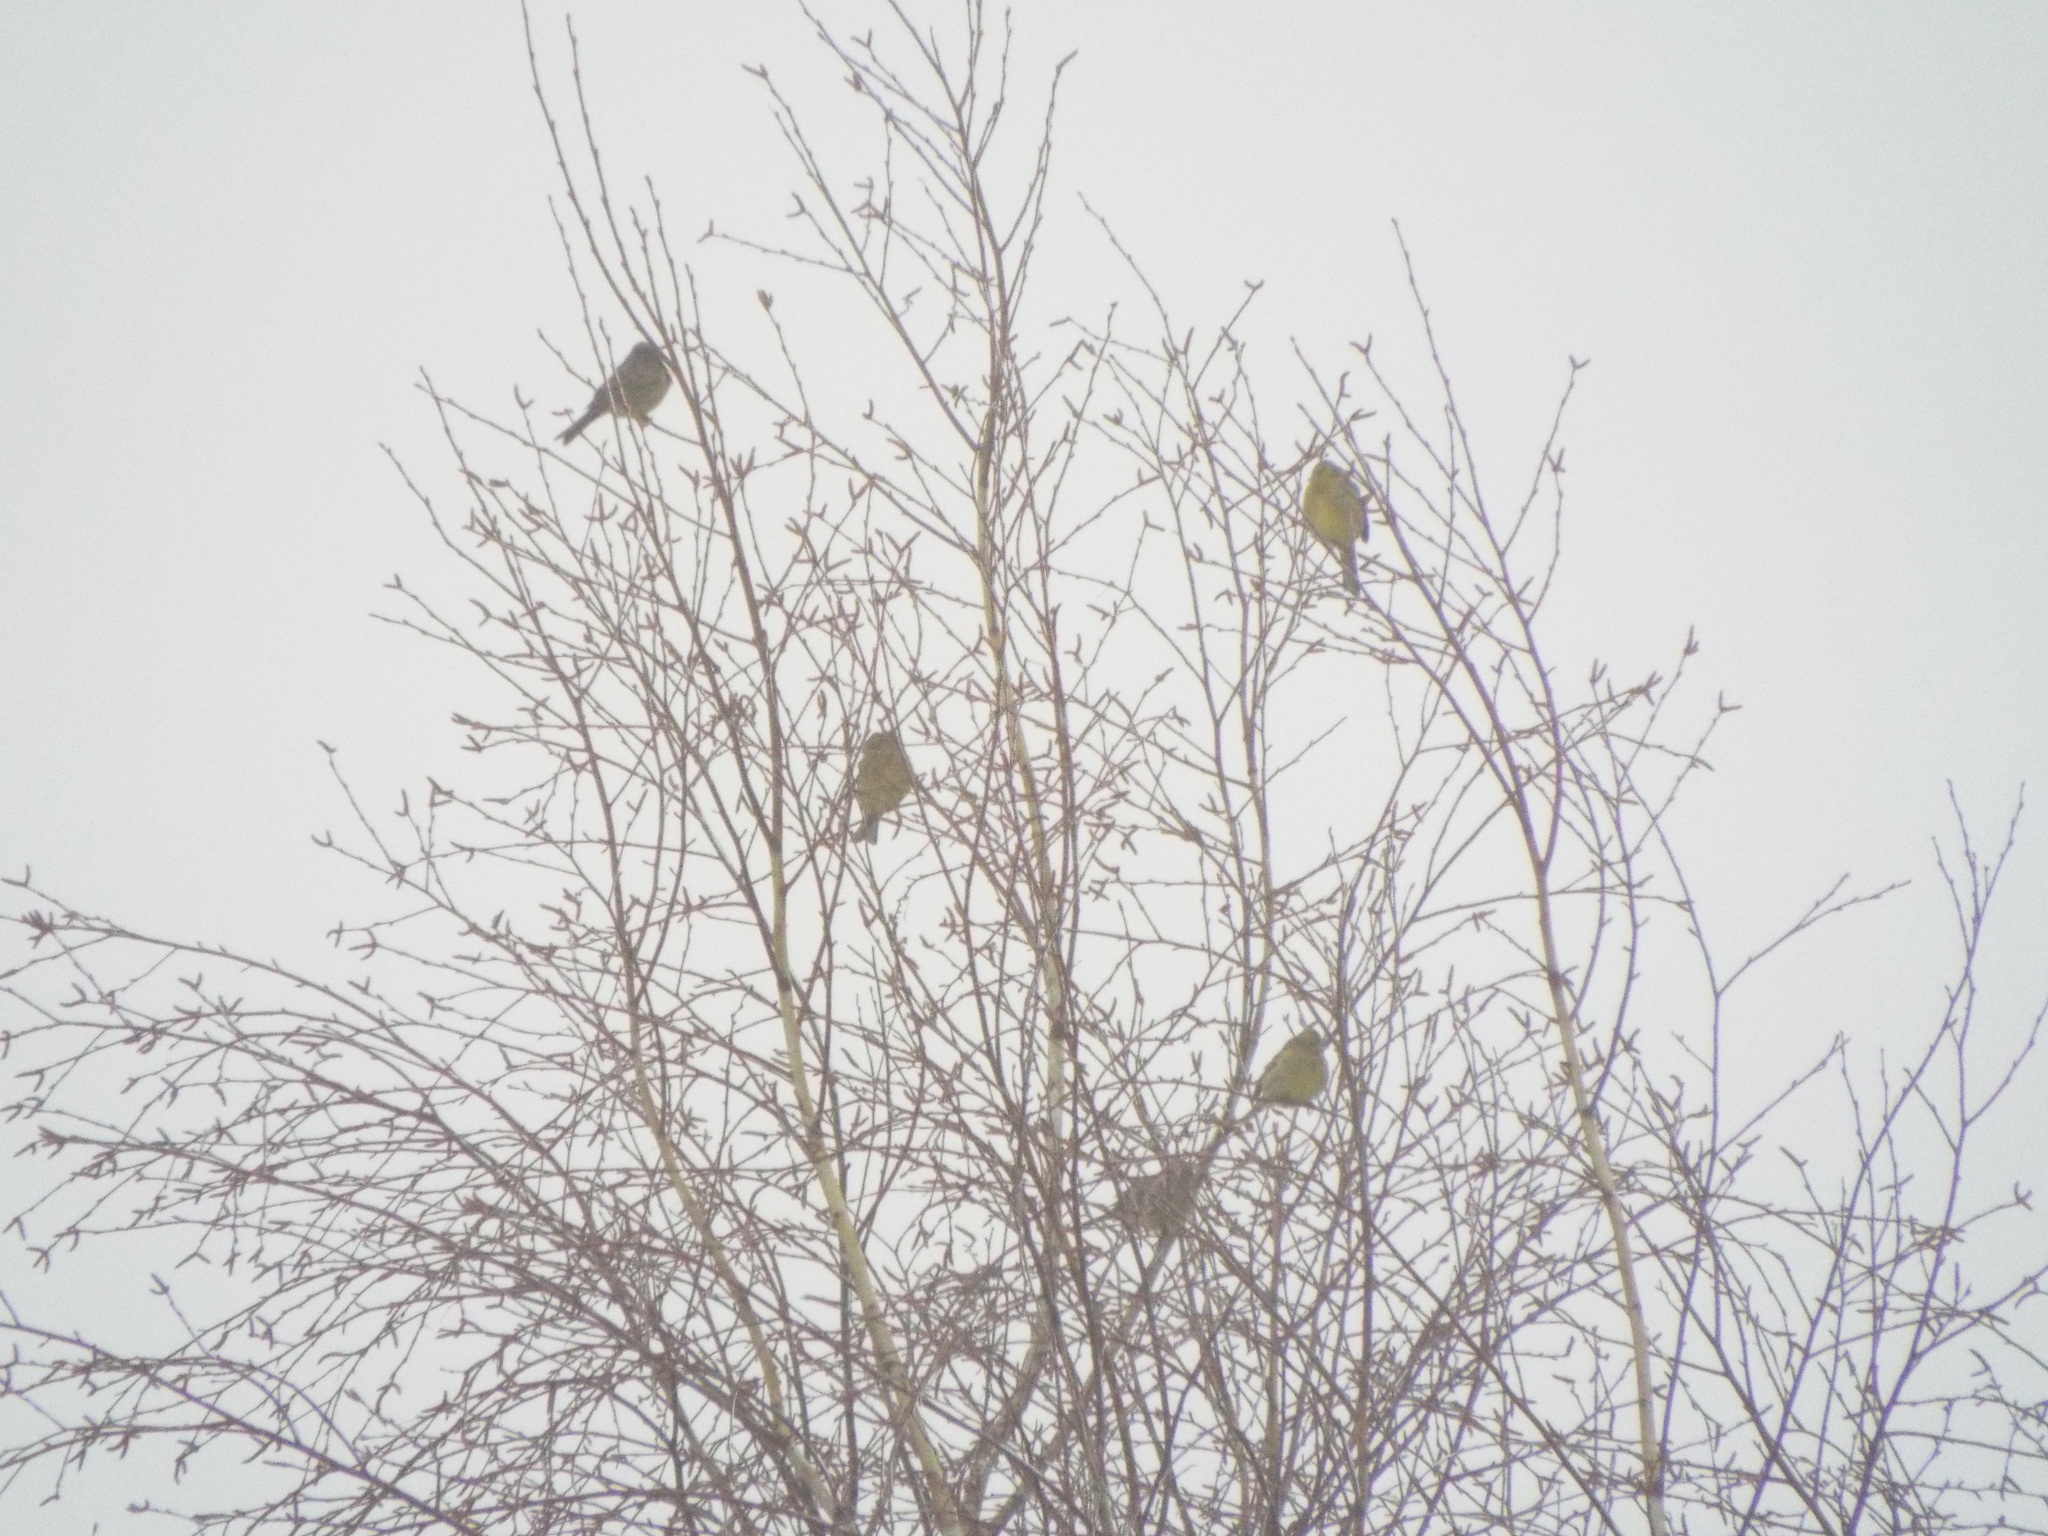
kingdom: Animalia
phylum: Chordata
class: Aves
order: Passeriformes
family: Emberizidae
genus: Emberiza
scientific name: Emberiza citrinella
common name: Yellowhammer
